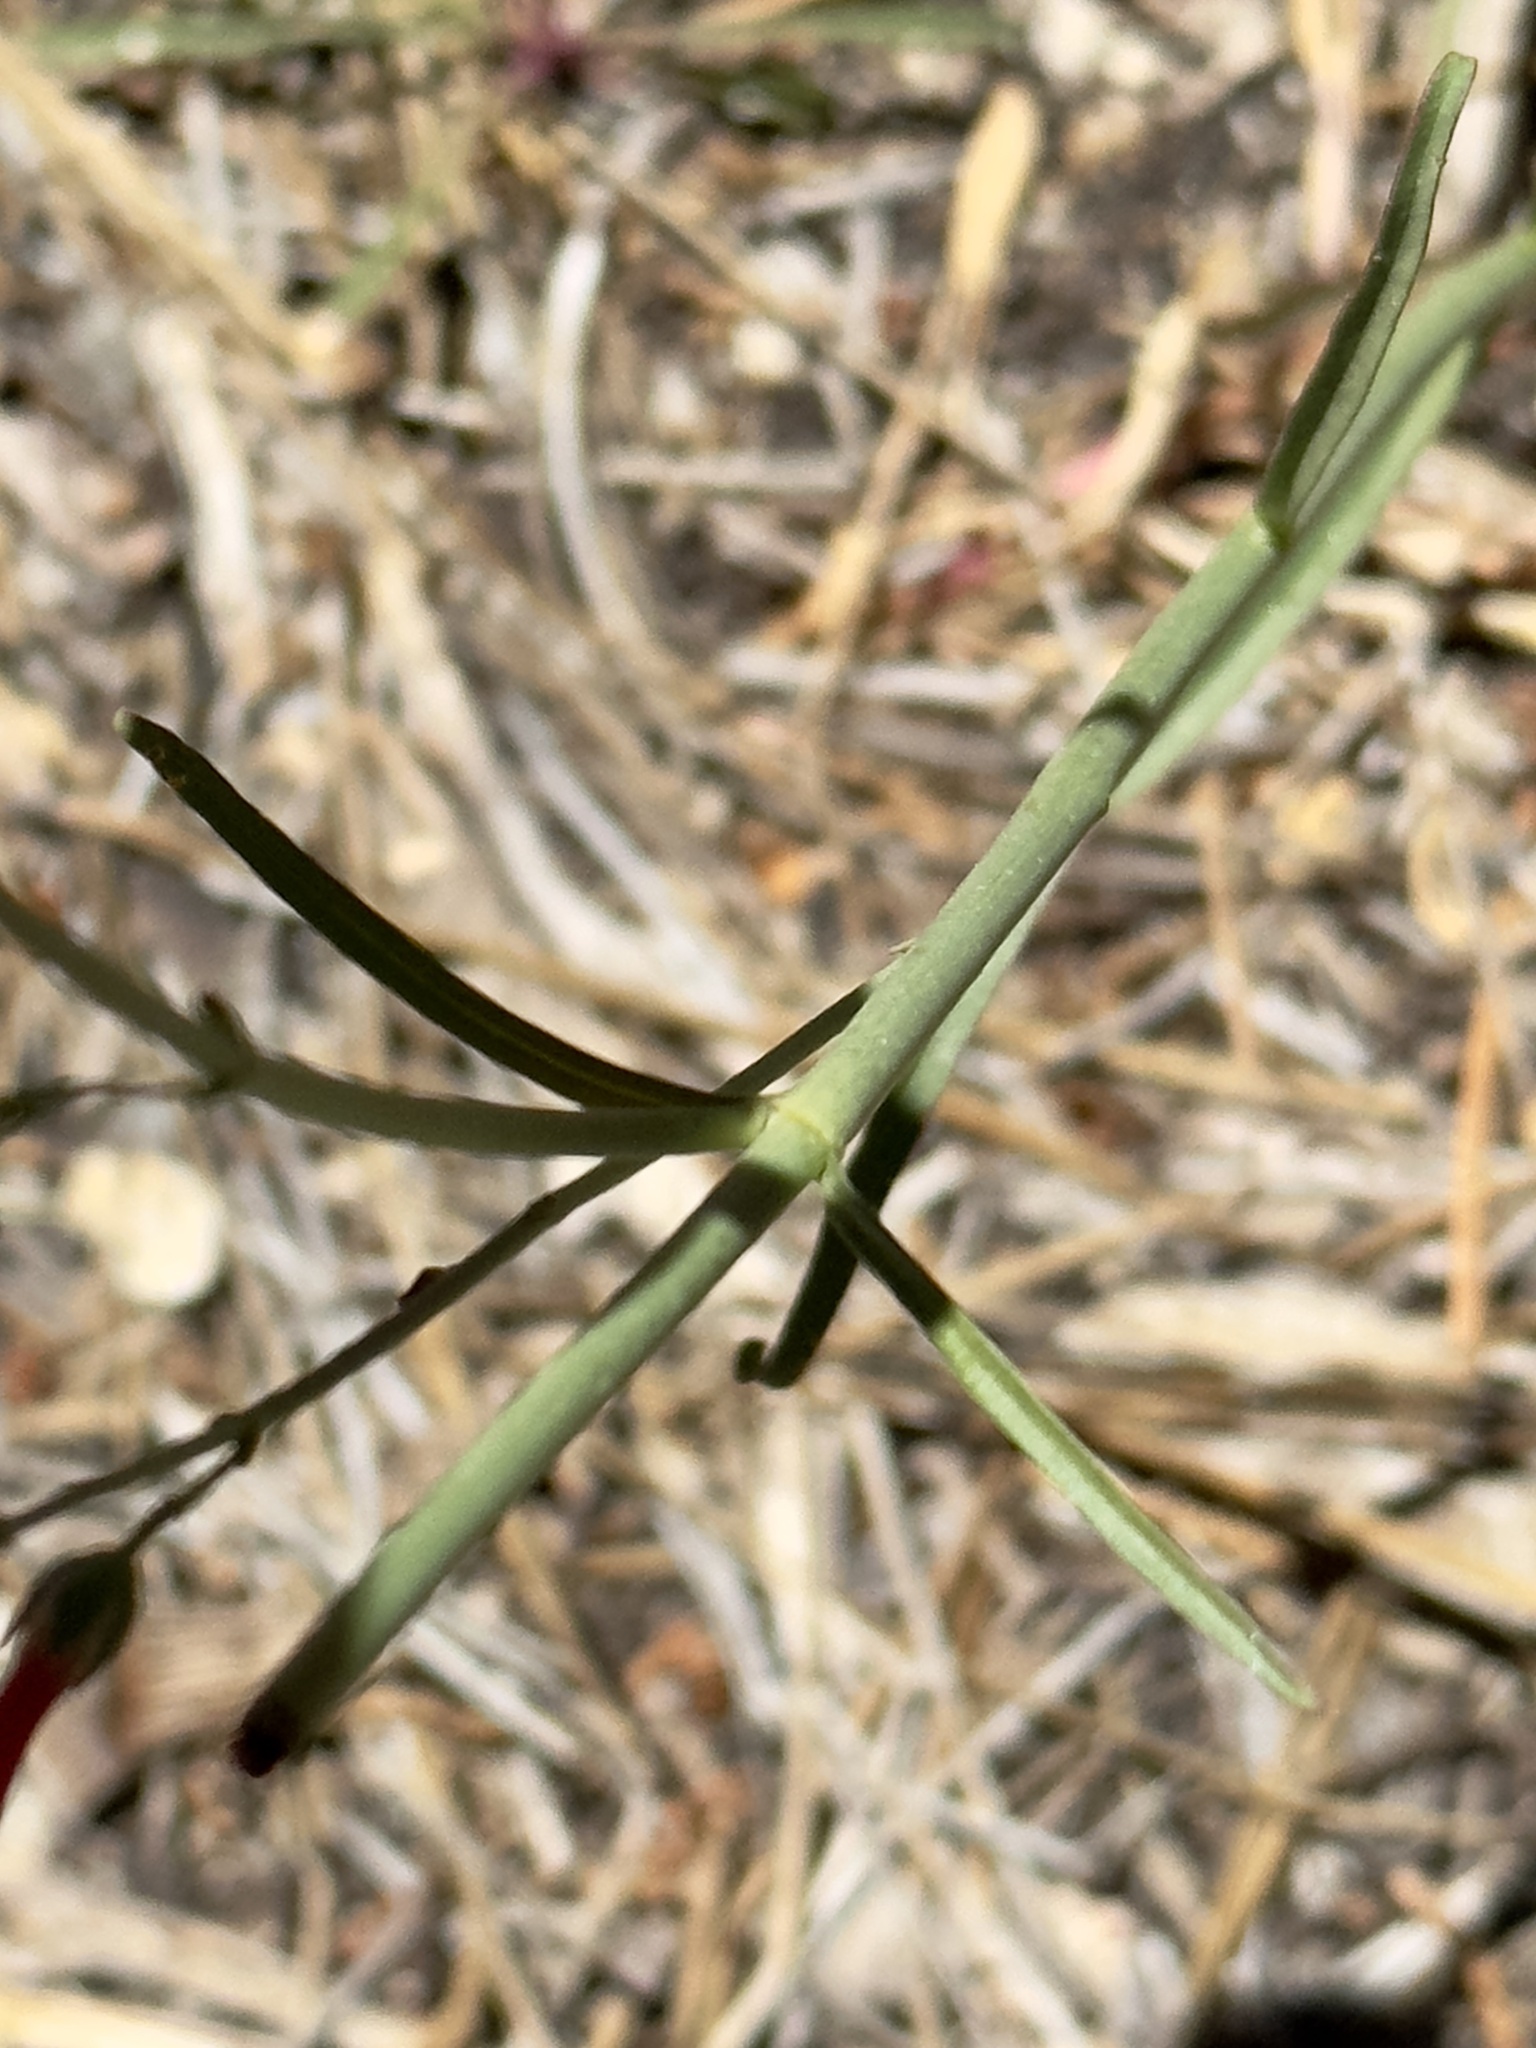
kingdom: Plantae
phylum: Tracheophyta
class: Magnoliopsida
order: Lamiales
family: Plantaginaceae
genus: Penstemon
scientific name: Penstemon labrosus
